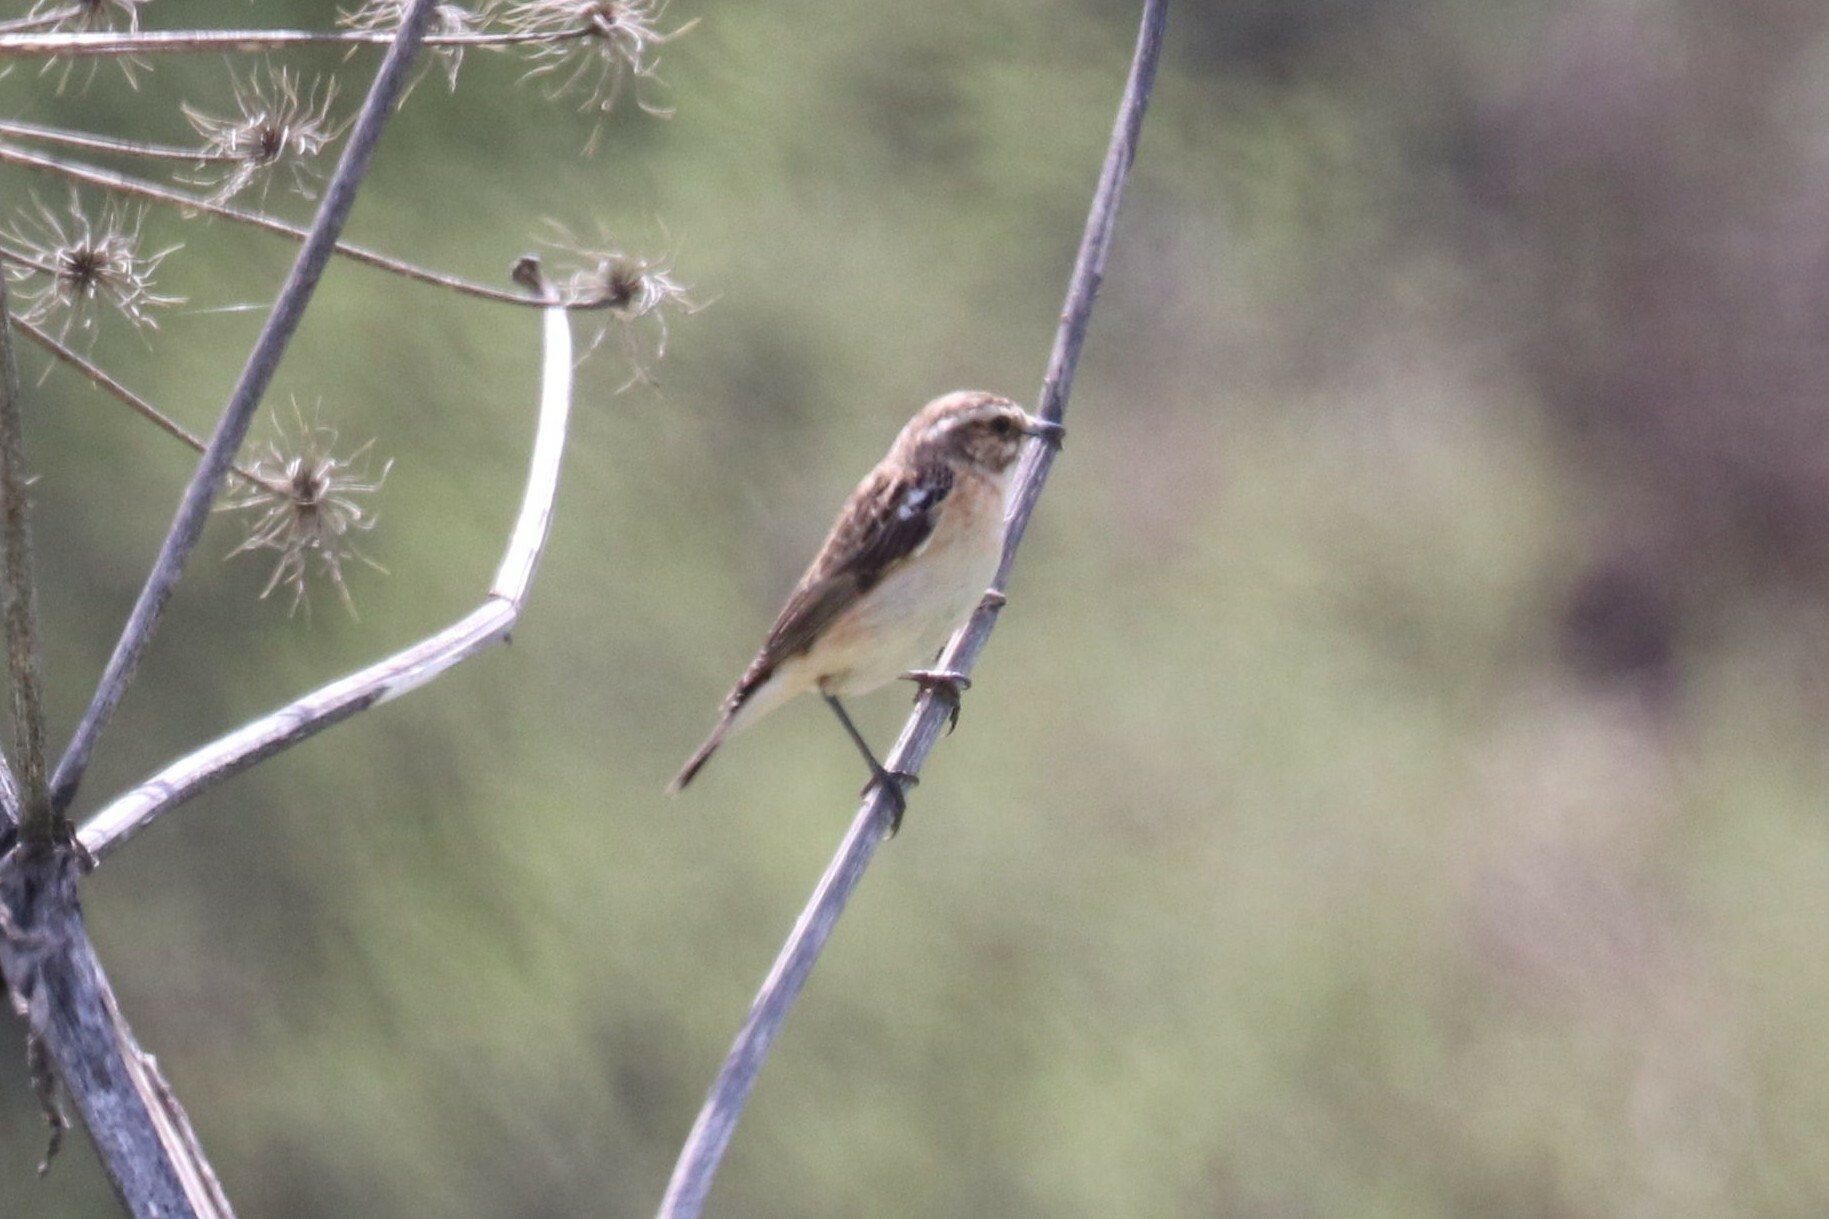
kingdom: Animalia
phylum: Chordata
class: Aves
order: Passeriformes
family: Muscicapidae
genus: Saxicola
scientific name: Saxicola rubetra
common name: Whinchat
